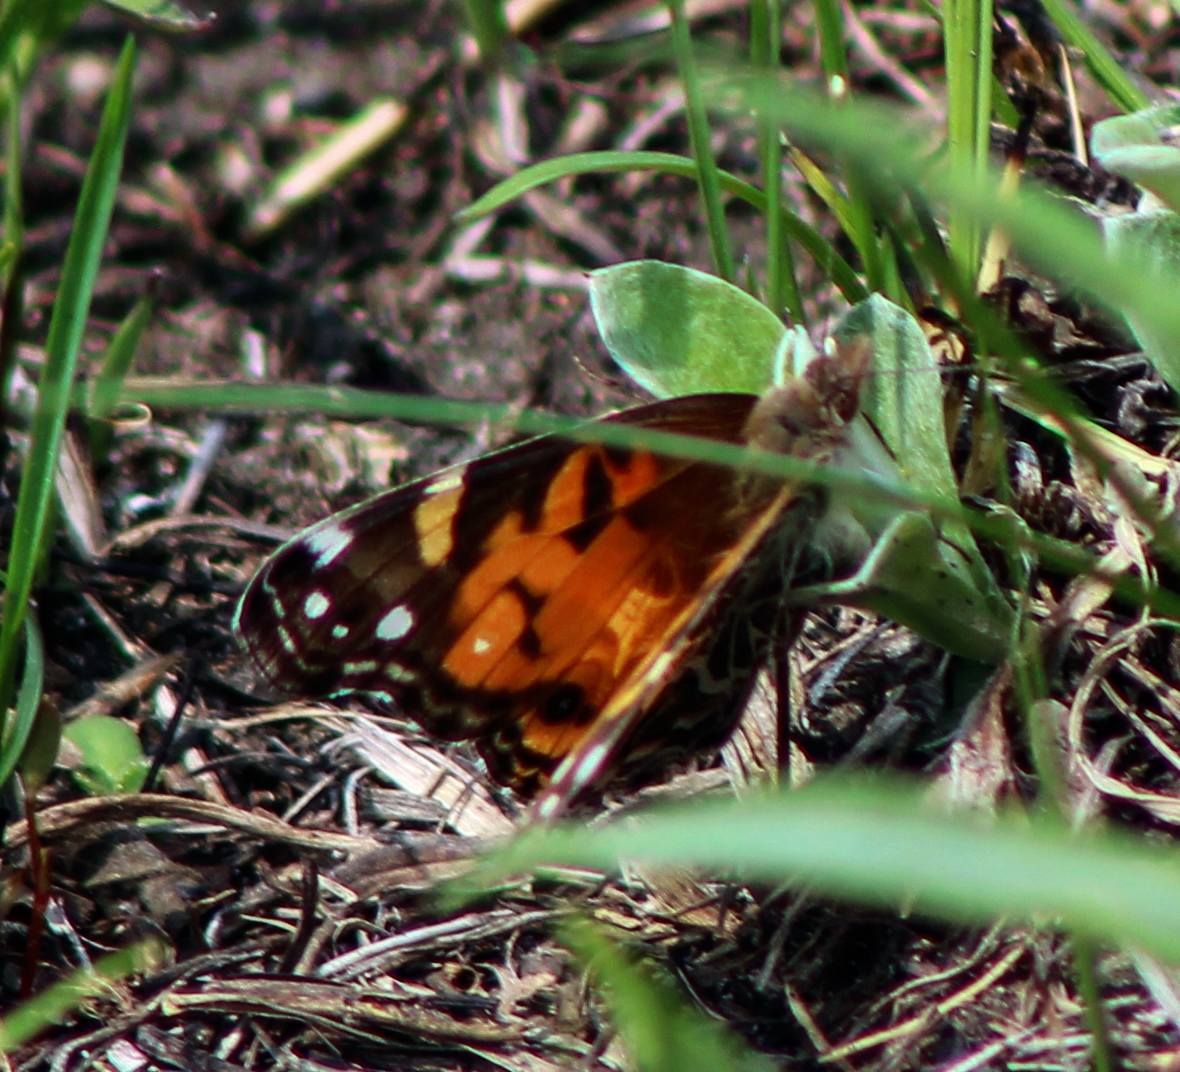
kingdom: Animalia
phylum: Arthropoda
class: Insecta
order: Lepidoptera
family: Nymphalidae
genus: Vanessa
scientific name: Vanessa virginiensis
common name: American lady
